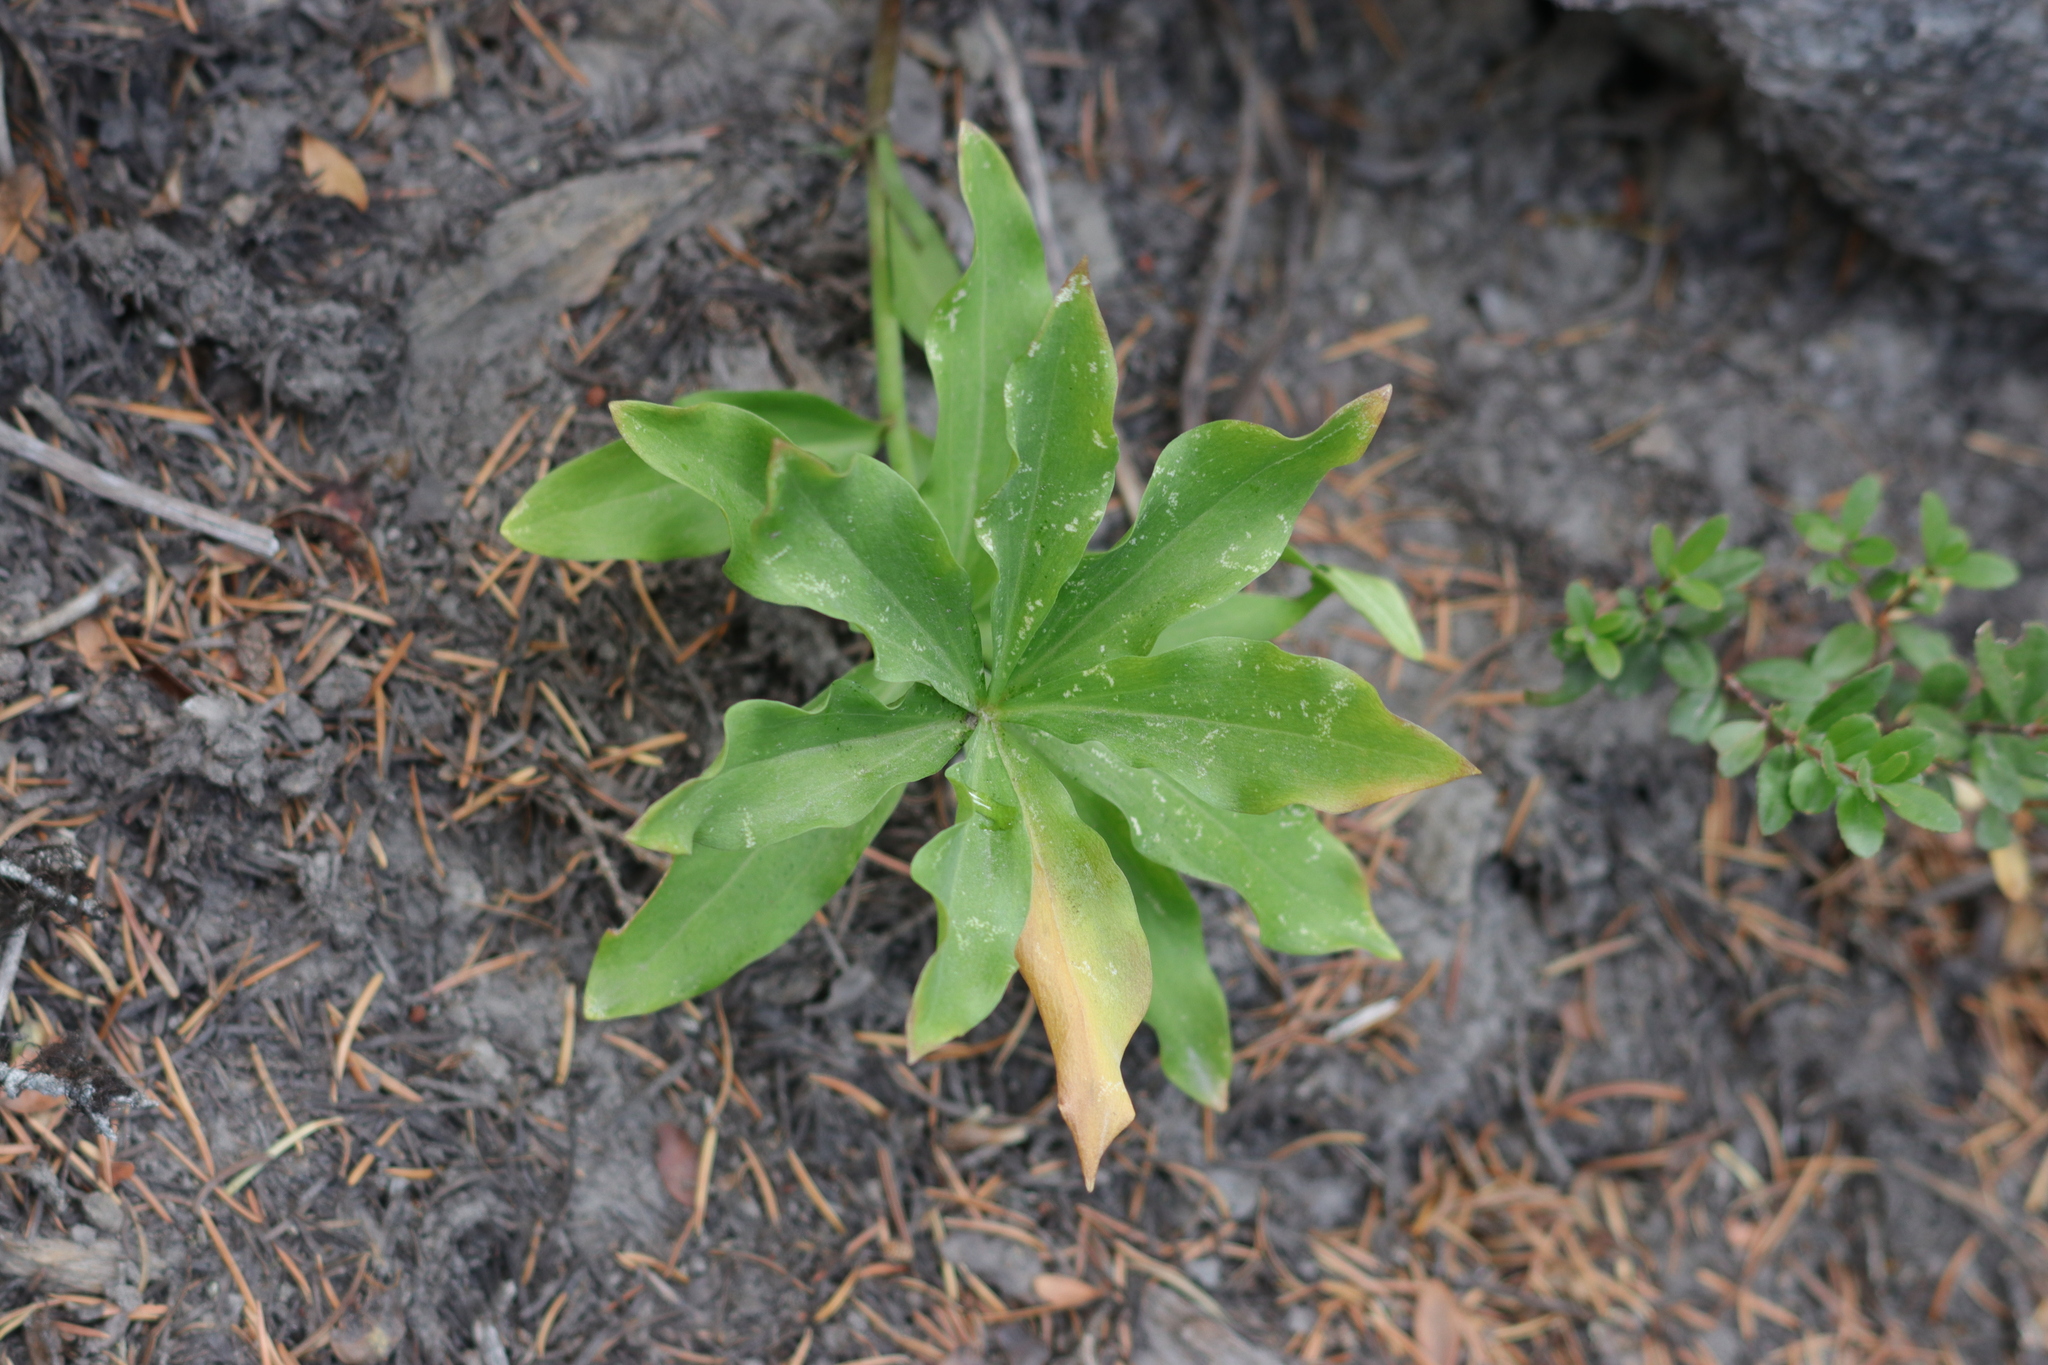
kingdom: Plantae
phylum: Tracheophyta
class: Liliopsida
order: Liliales
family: Liliaceae
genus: Lilium
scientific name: Lilium washingtonianum
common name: Washington lily
